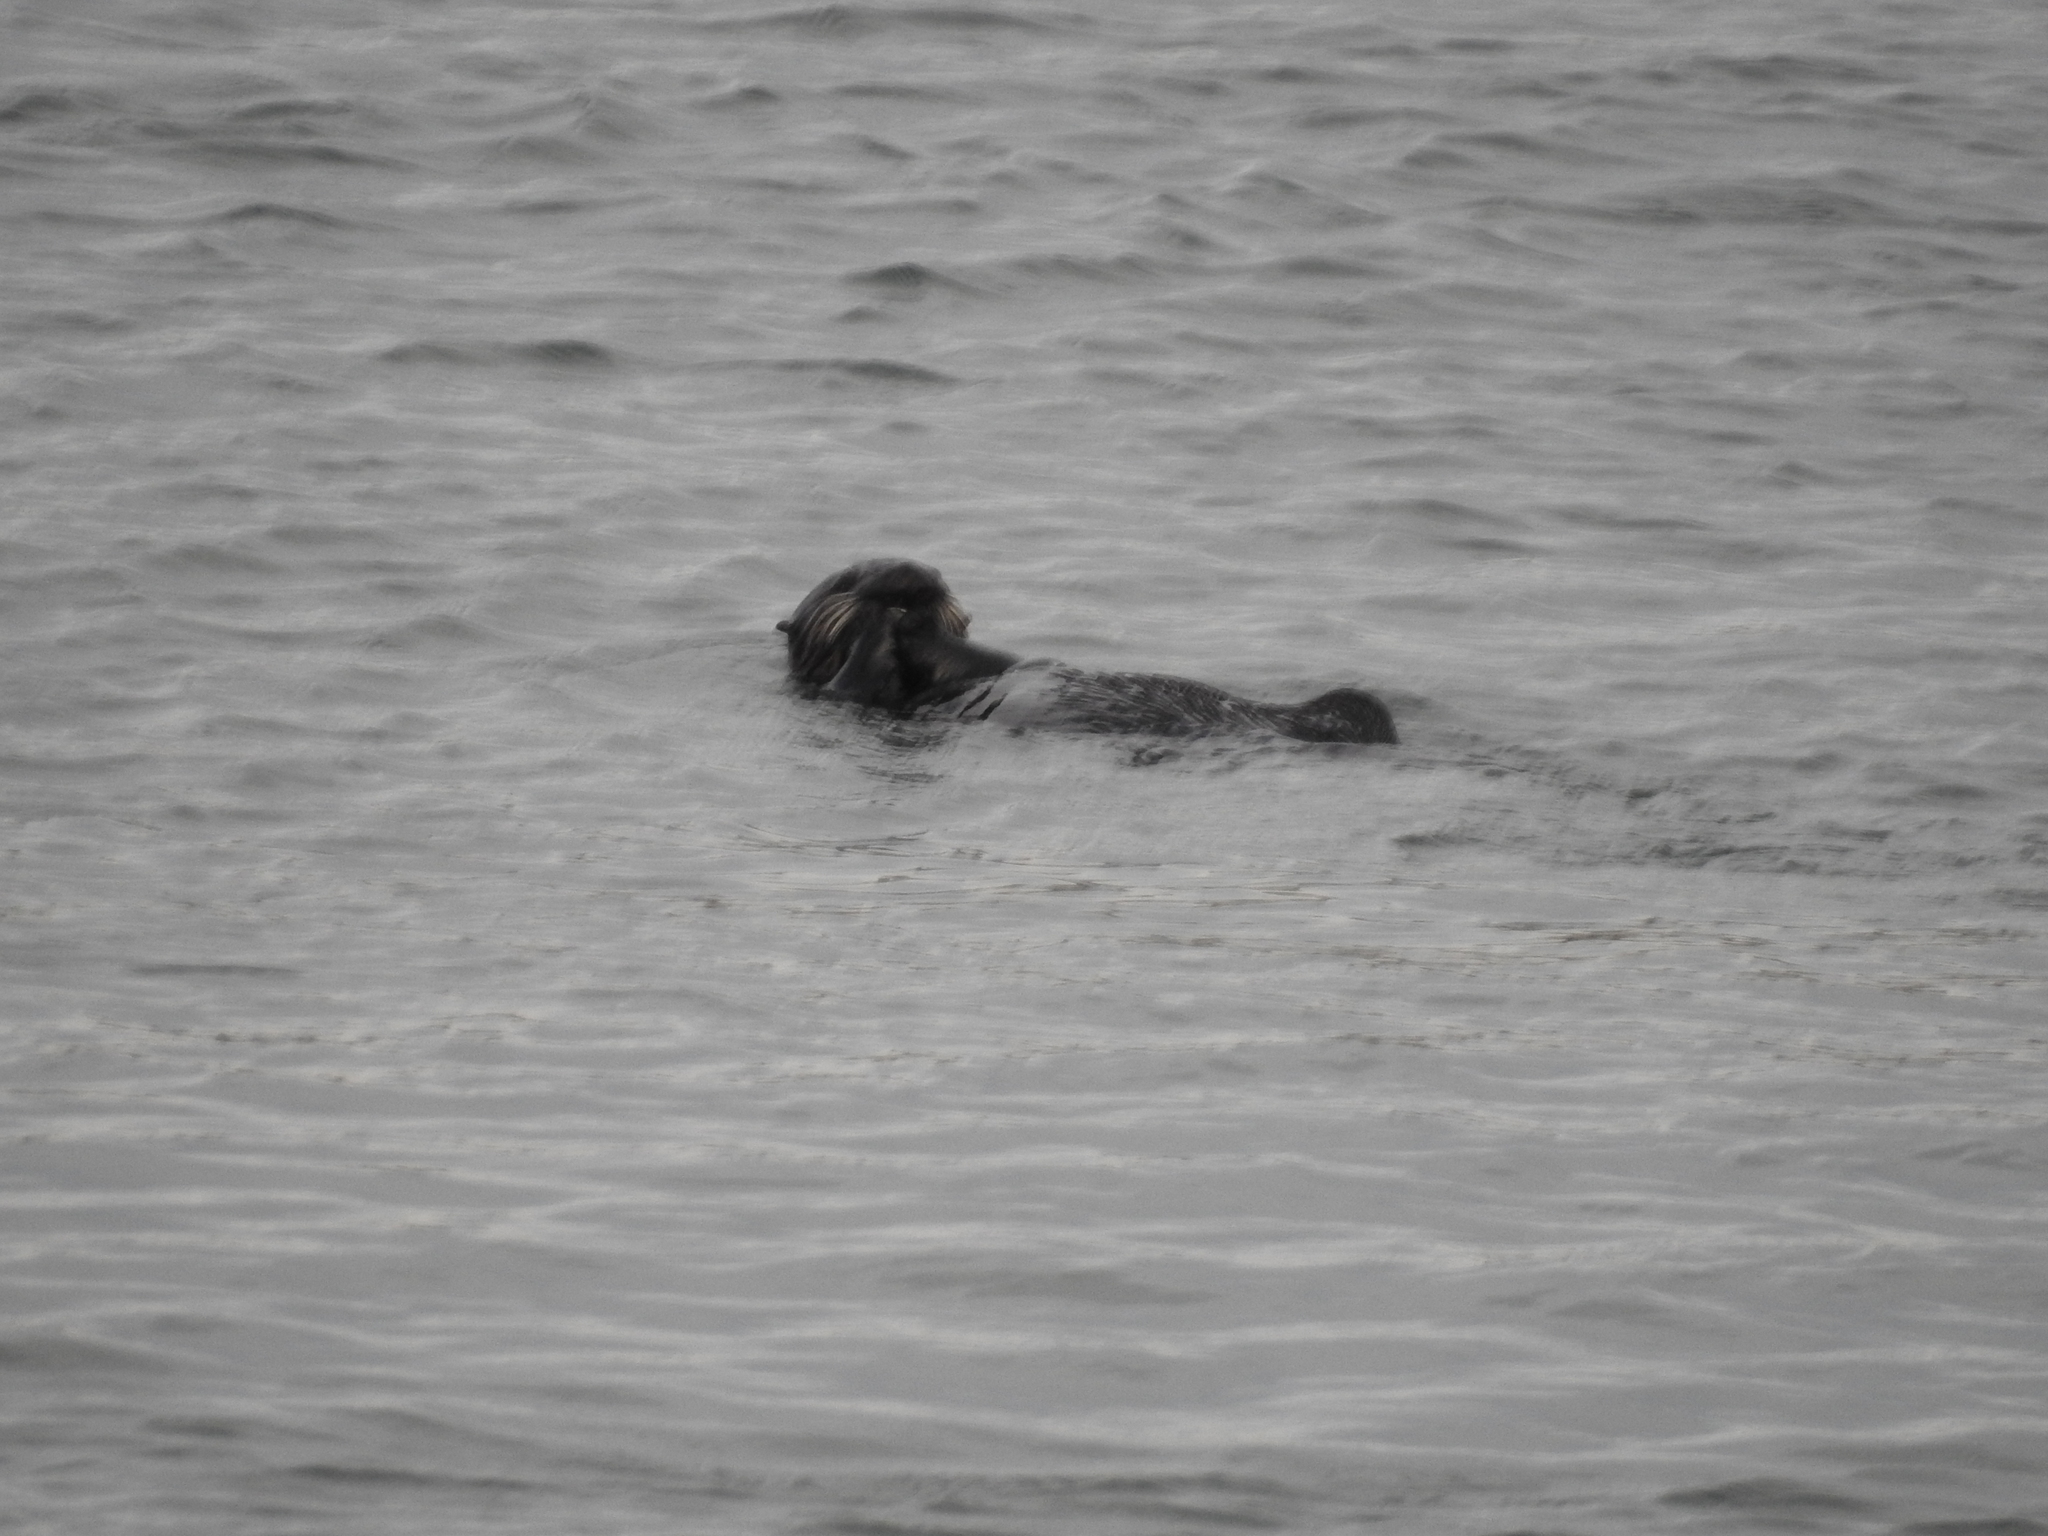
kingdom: Animalia
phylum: Chordata
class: Mammalia
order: Carnivora
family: Mustelidae
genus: Enhydra
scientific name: Enhydra lutris
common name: Sea otter
